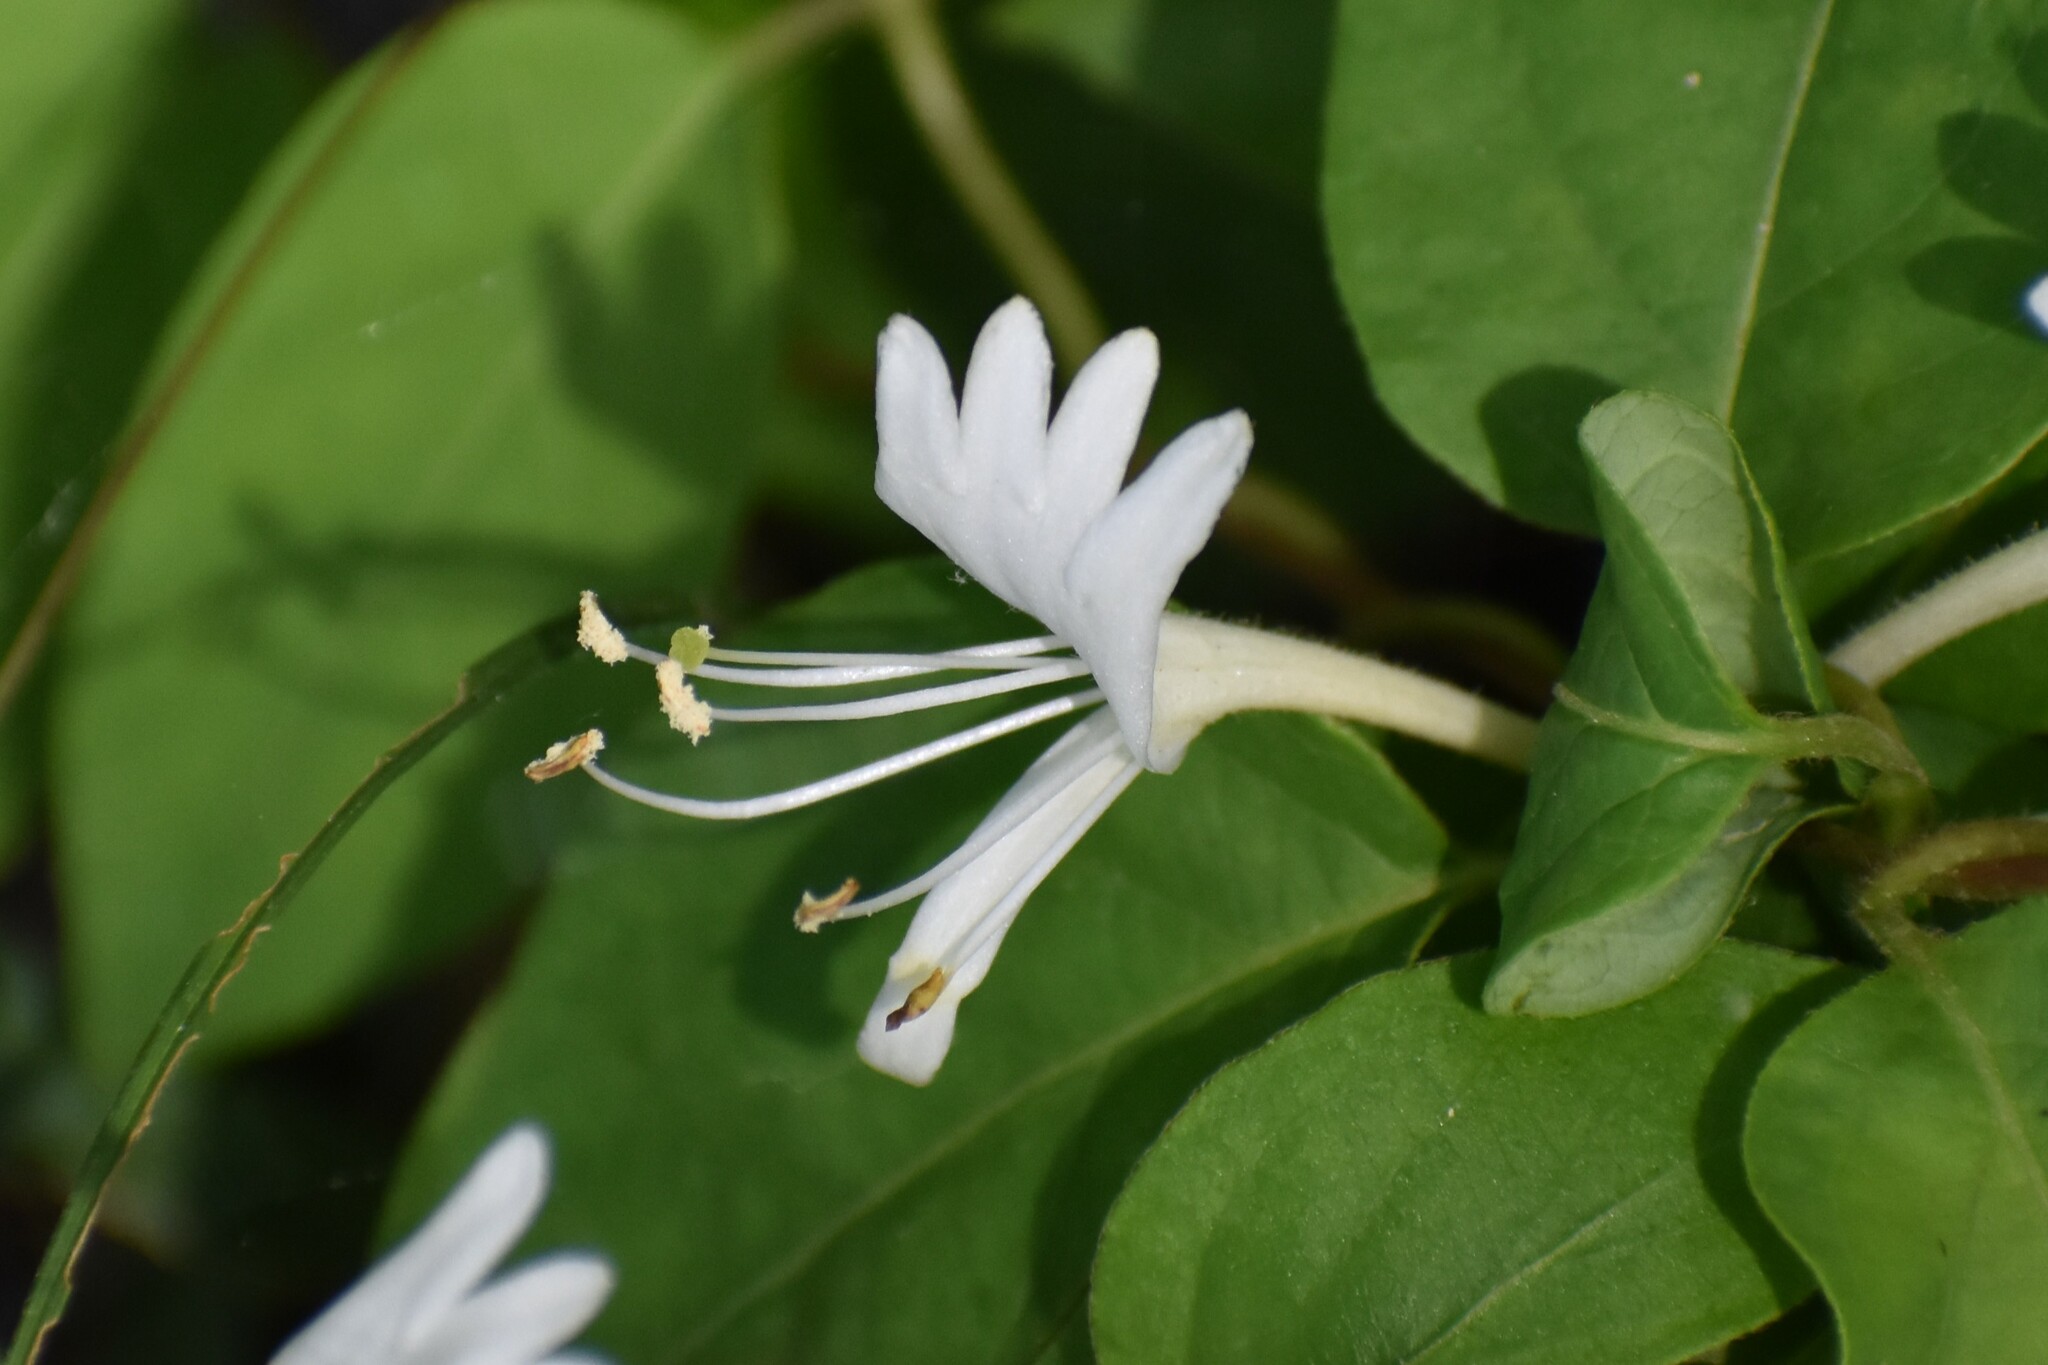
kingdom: Plantae
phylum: Tracheophyta
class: Magnoliopsida
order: Dipsacales
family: Caprifoliaceae
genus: Lonicera
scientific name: Lonicera japonica
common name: Japanese honeysuckle
